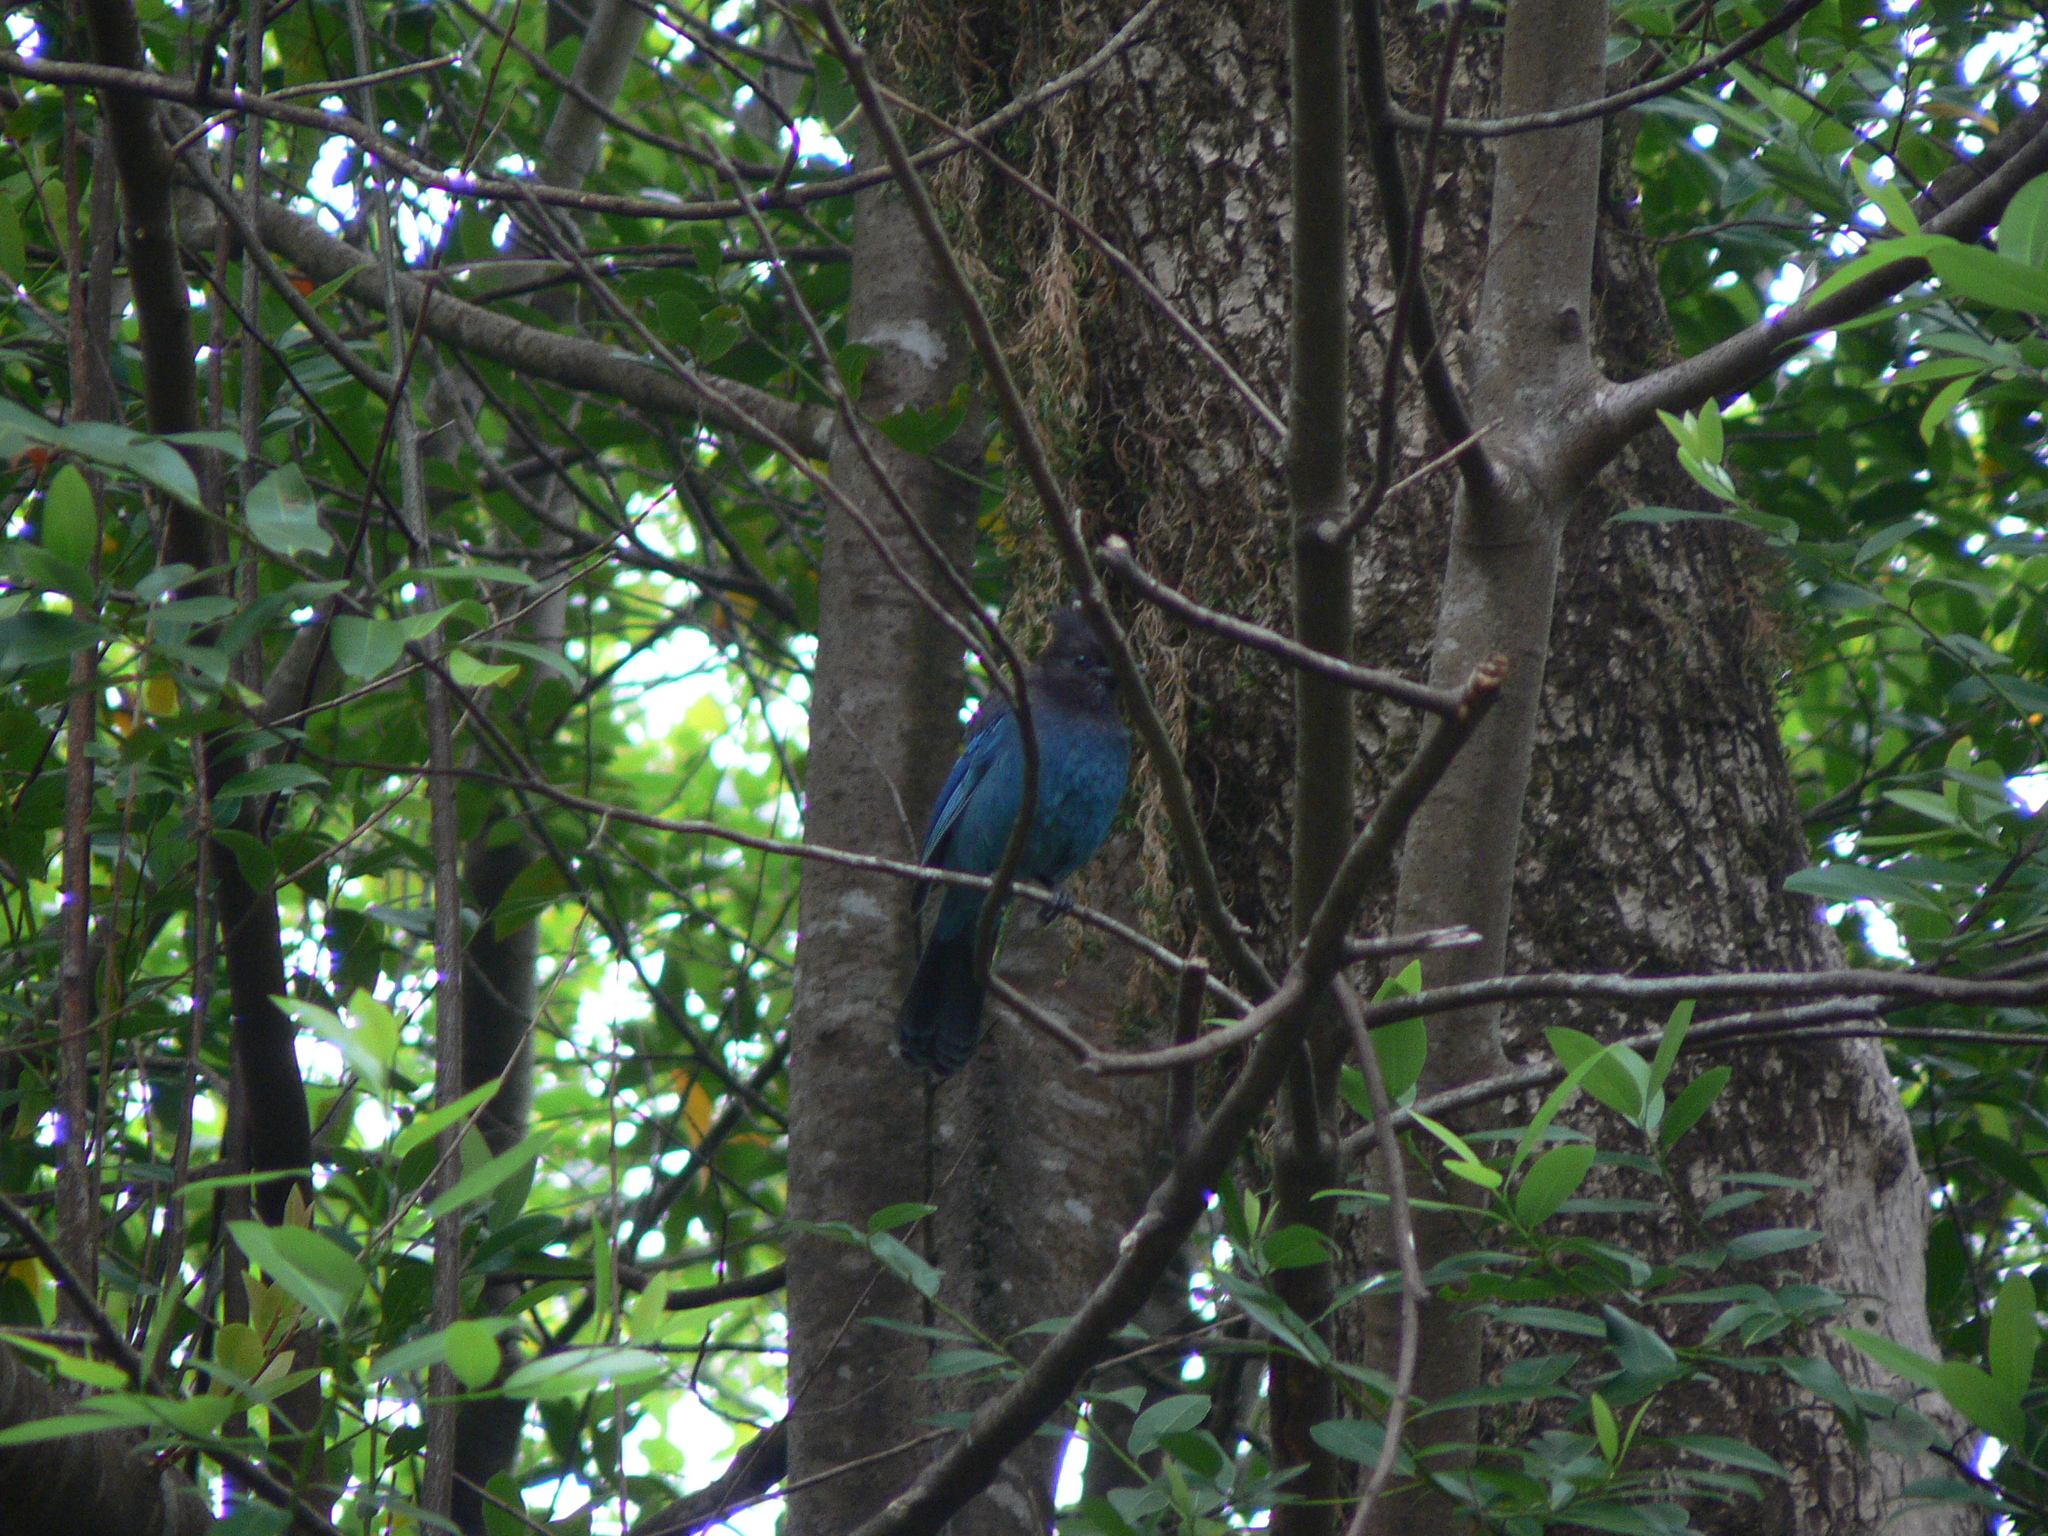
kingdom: Animalia
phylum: Chordata
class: Aves
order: Passeriformes
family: Corvidae
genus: Cyanocitta
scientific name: Cyanocitta stelleri
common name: Steller's jay
